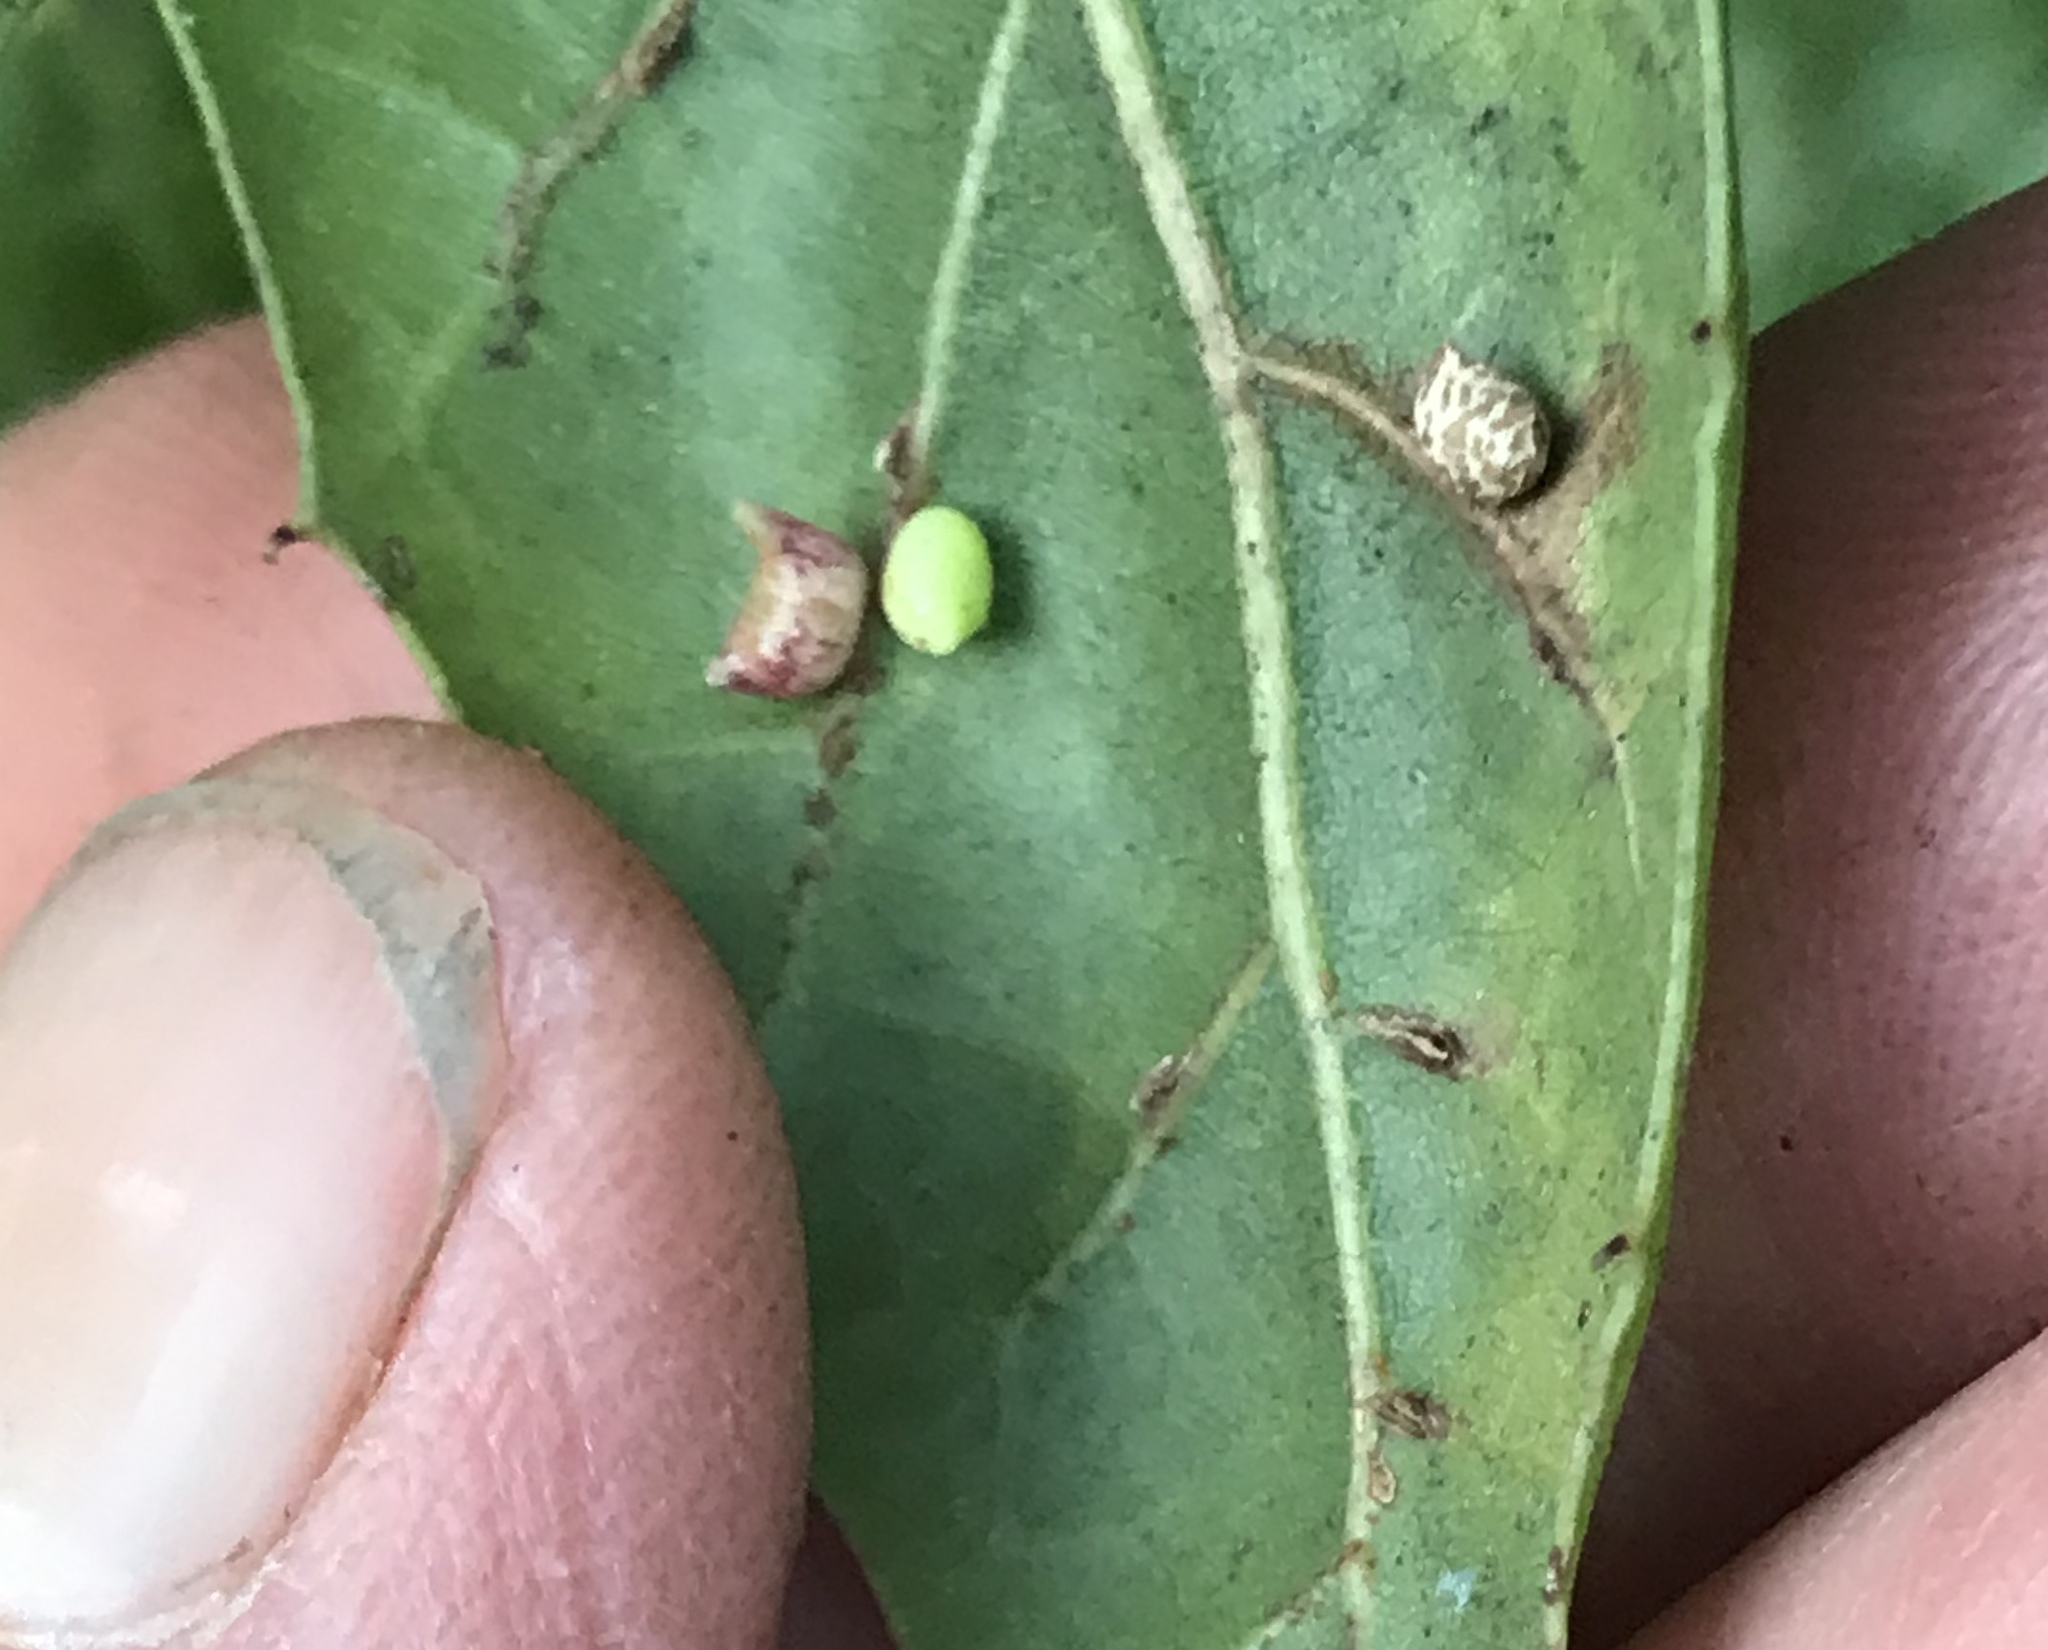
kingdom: Animalia
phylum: Arthropoda
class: Insecta
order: Hymenoptera
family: Cynipidae
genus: Dryocosmus
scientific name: Dryocosmus
